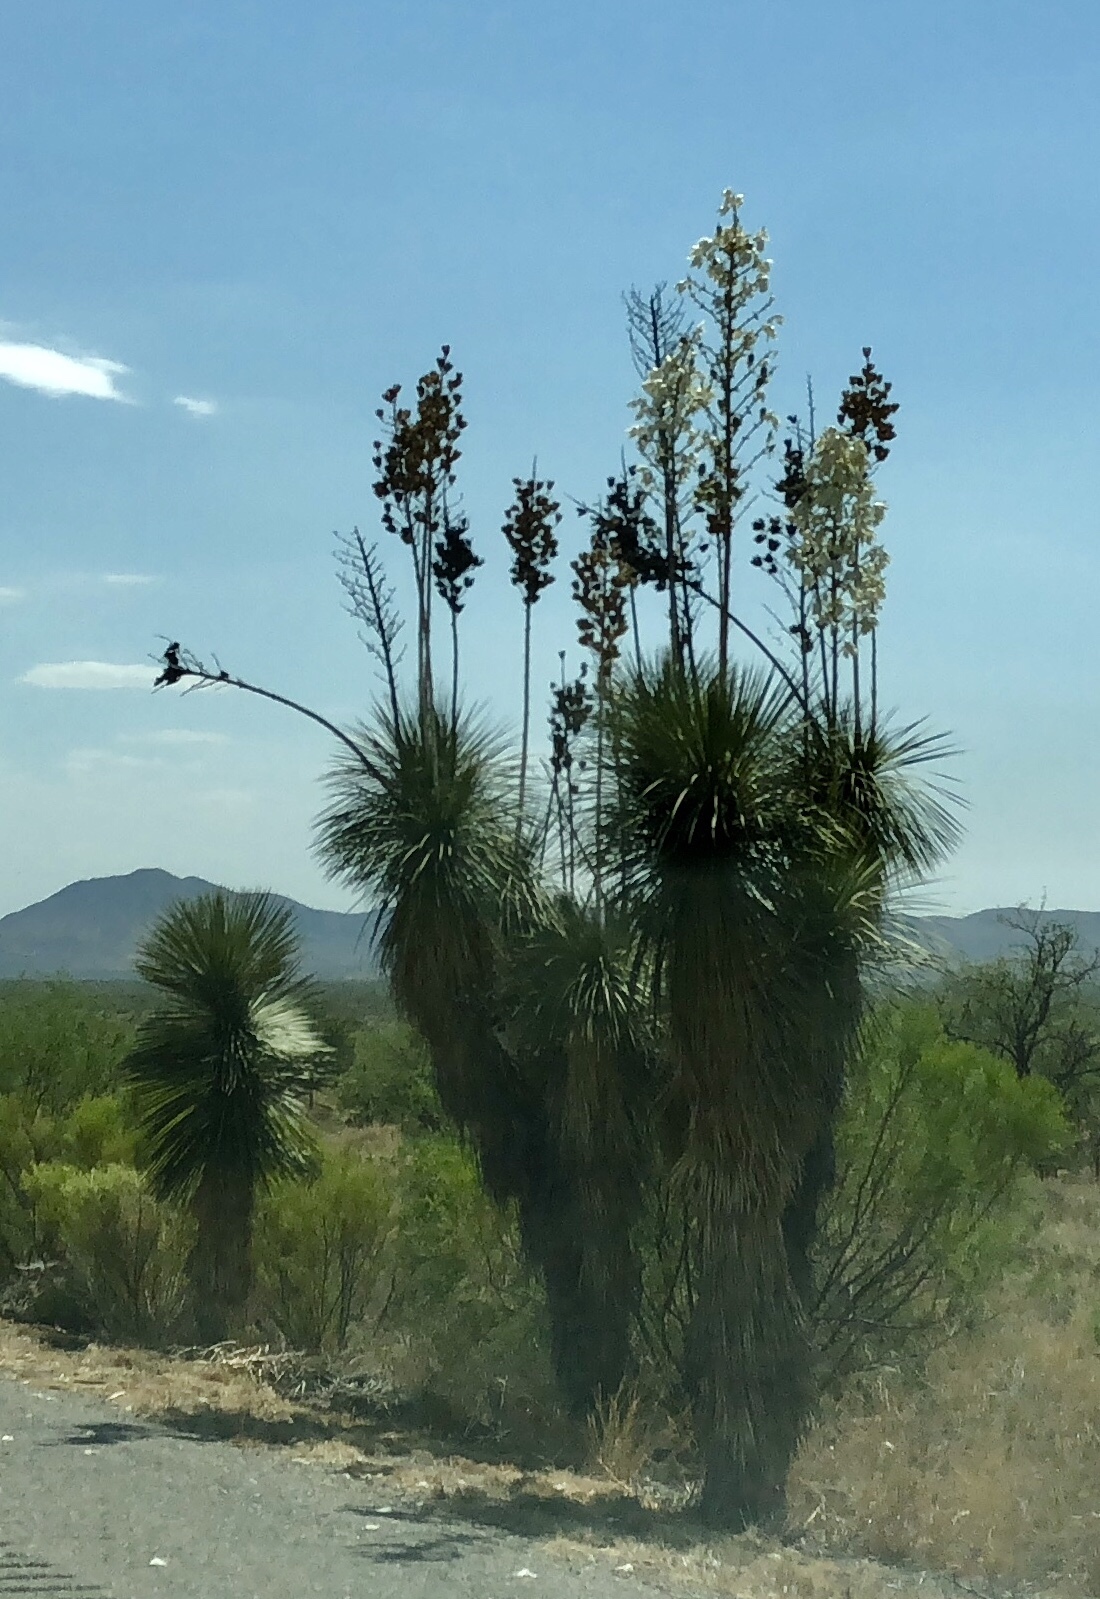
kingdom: Plantae
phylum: Tracheophyta
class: Liliopsida
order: Asparagales
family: Asparagaceae
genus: Yucca
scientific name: Yucca elata
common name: Palmella
